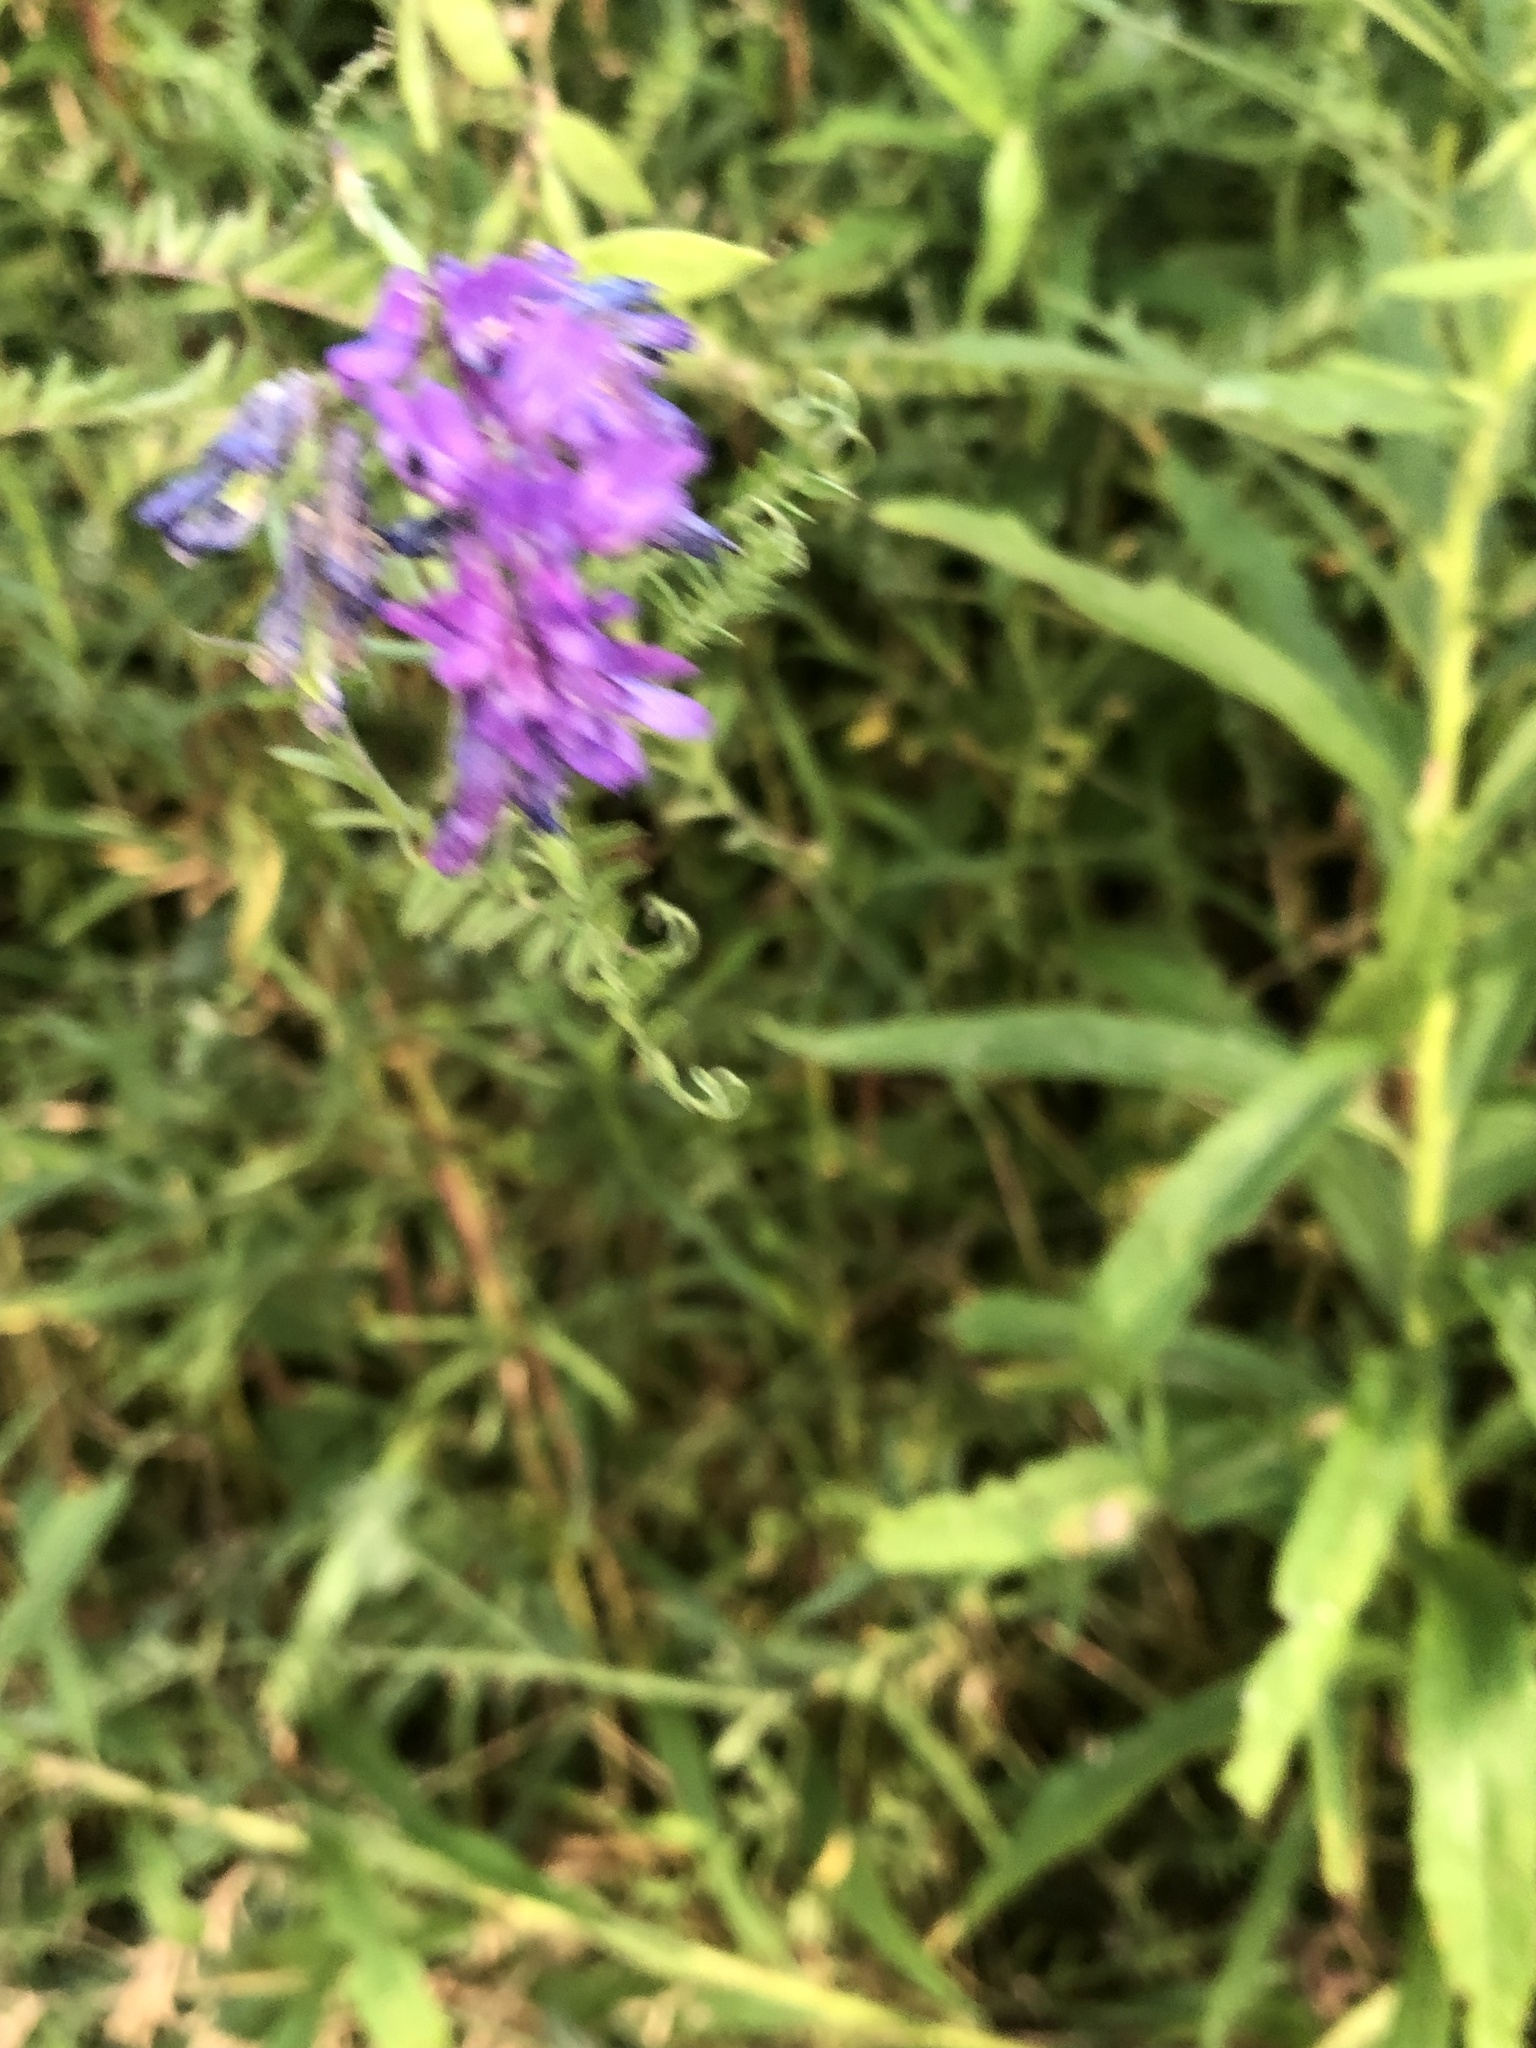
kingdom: Plantae
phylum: Tracheophyta
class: Magnoliopsida
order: Fabales
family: Fabaceae
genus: Vicia
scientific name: Vicia cracca
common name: Bird vetch
